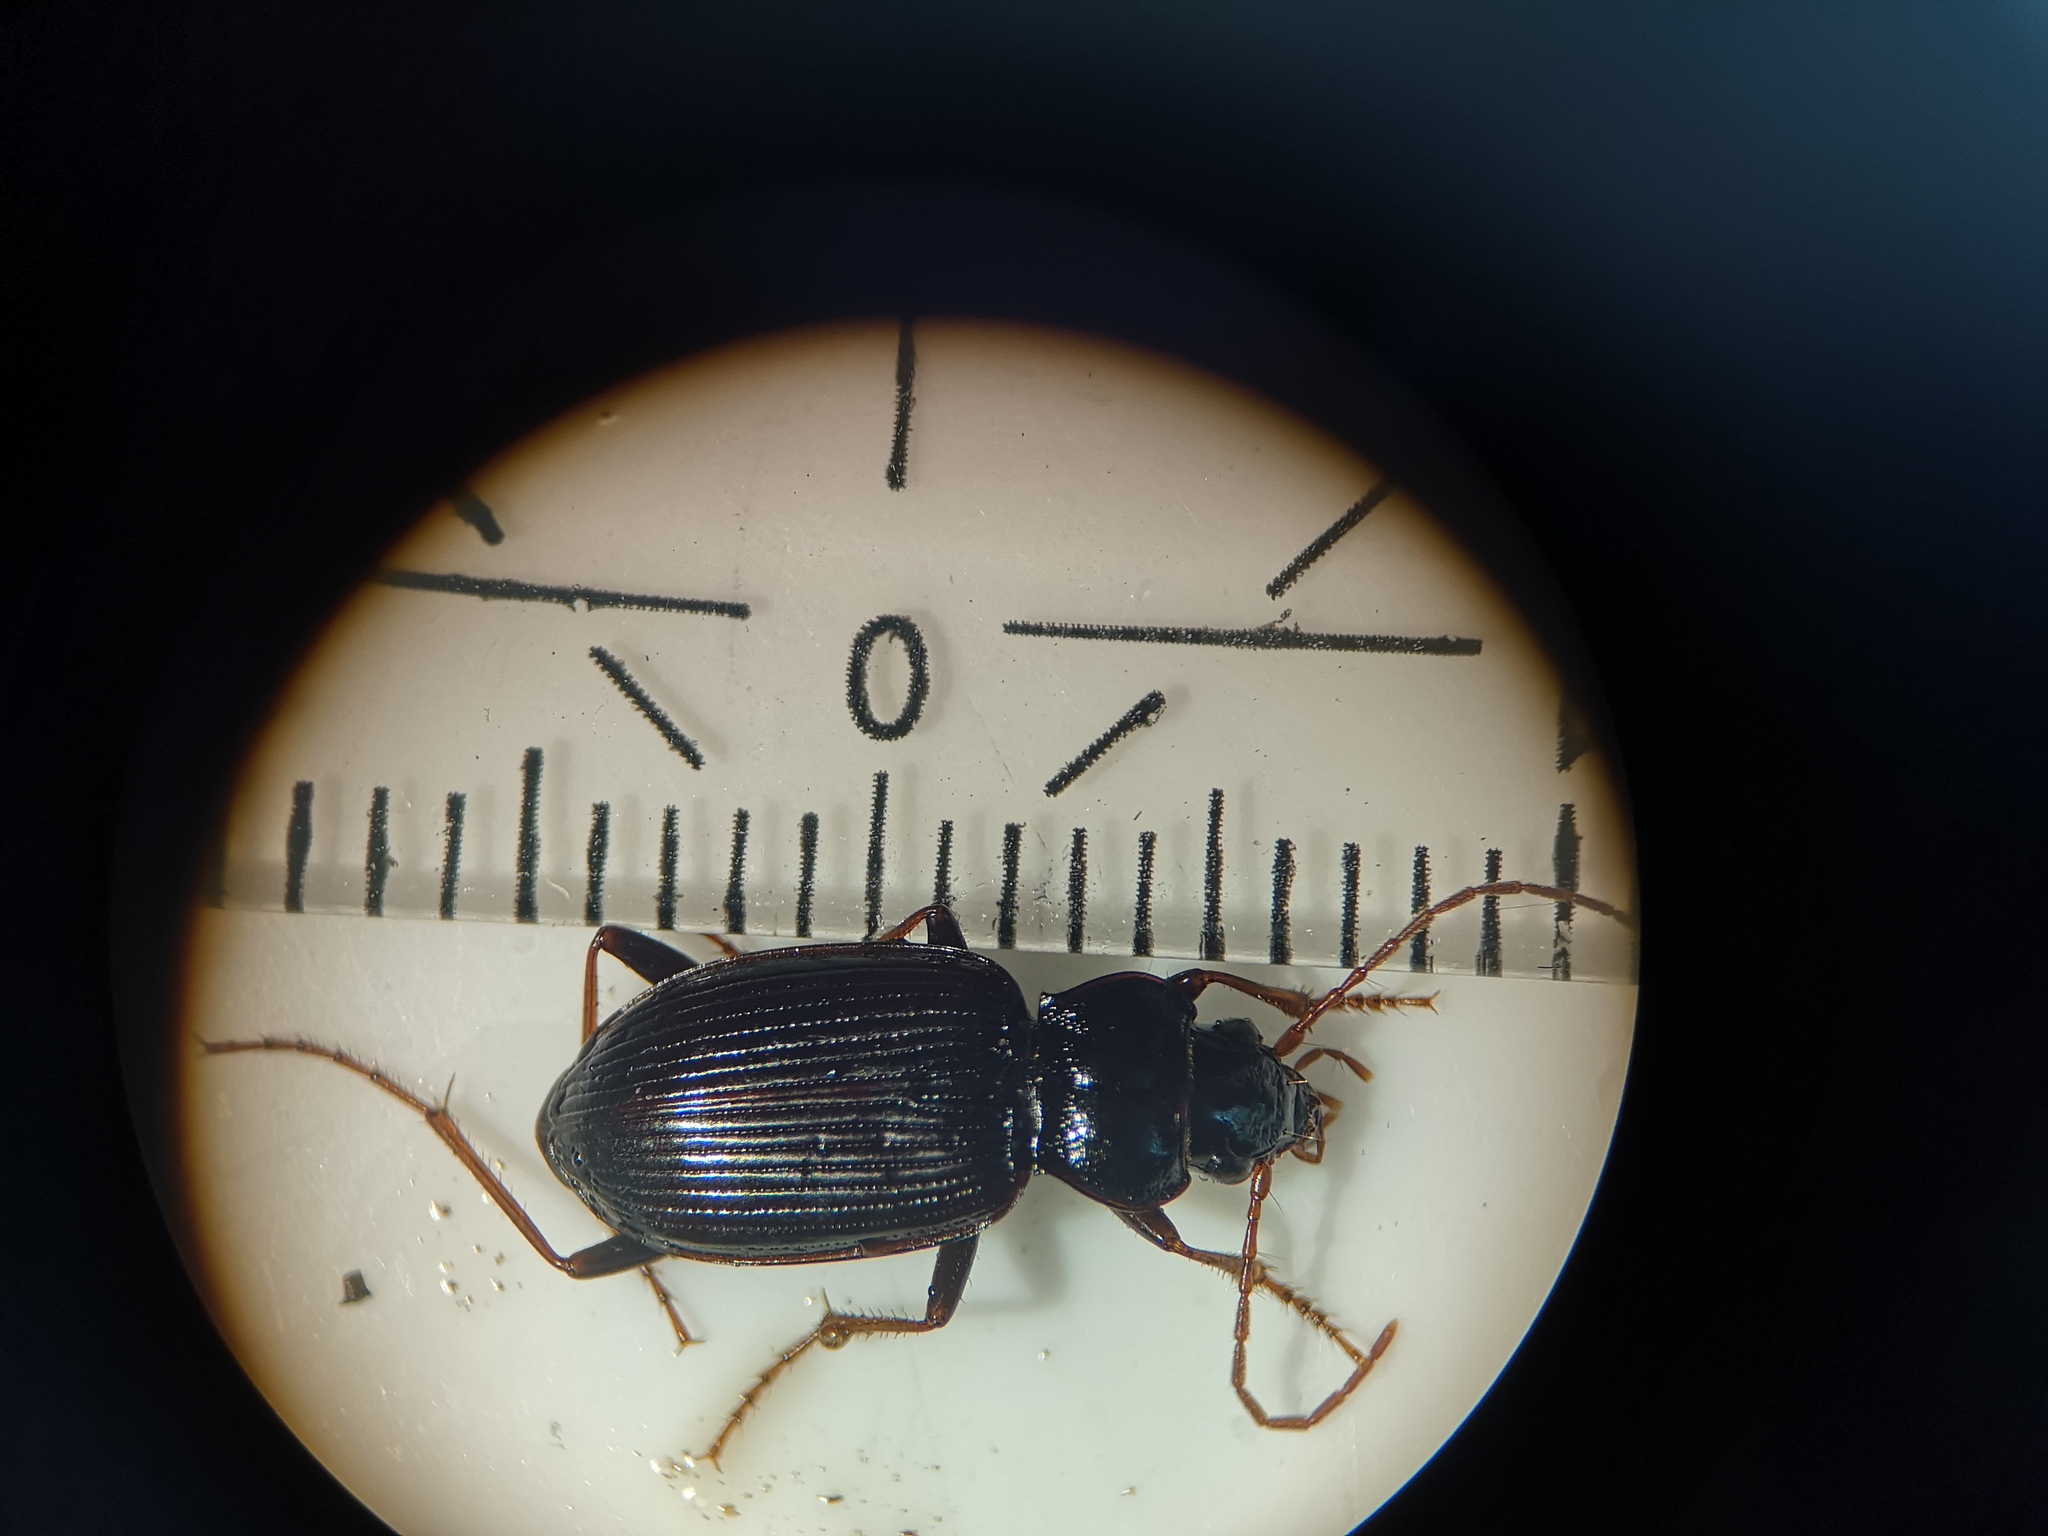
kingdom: Animalia
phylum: Arthropoda
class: Insecta
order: Coleoptera
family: Carabidae
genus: Nebria
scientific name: Nebria brevicollis
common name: Short-necked gazelle beetle
